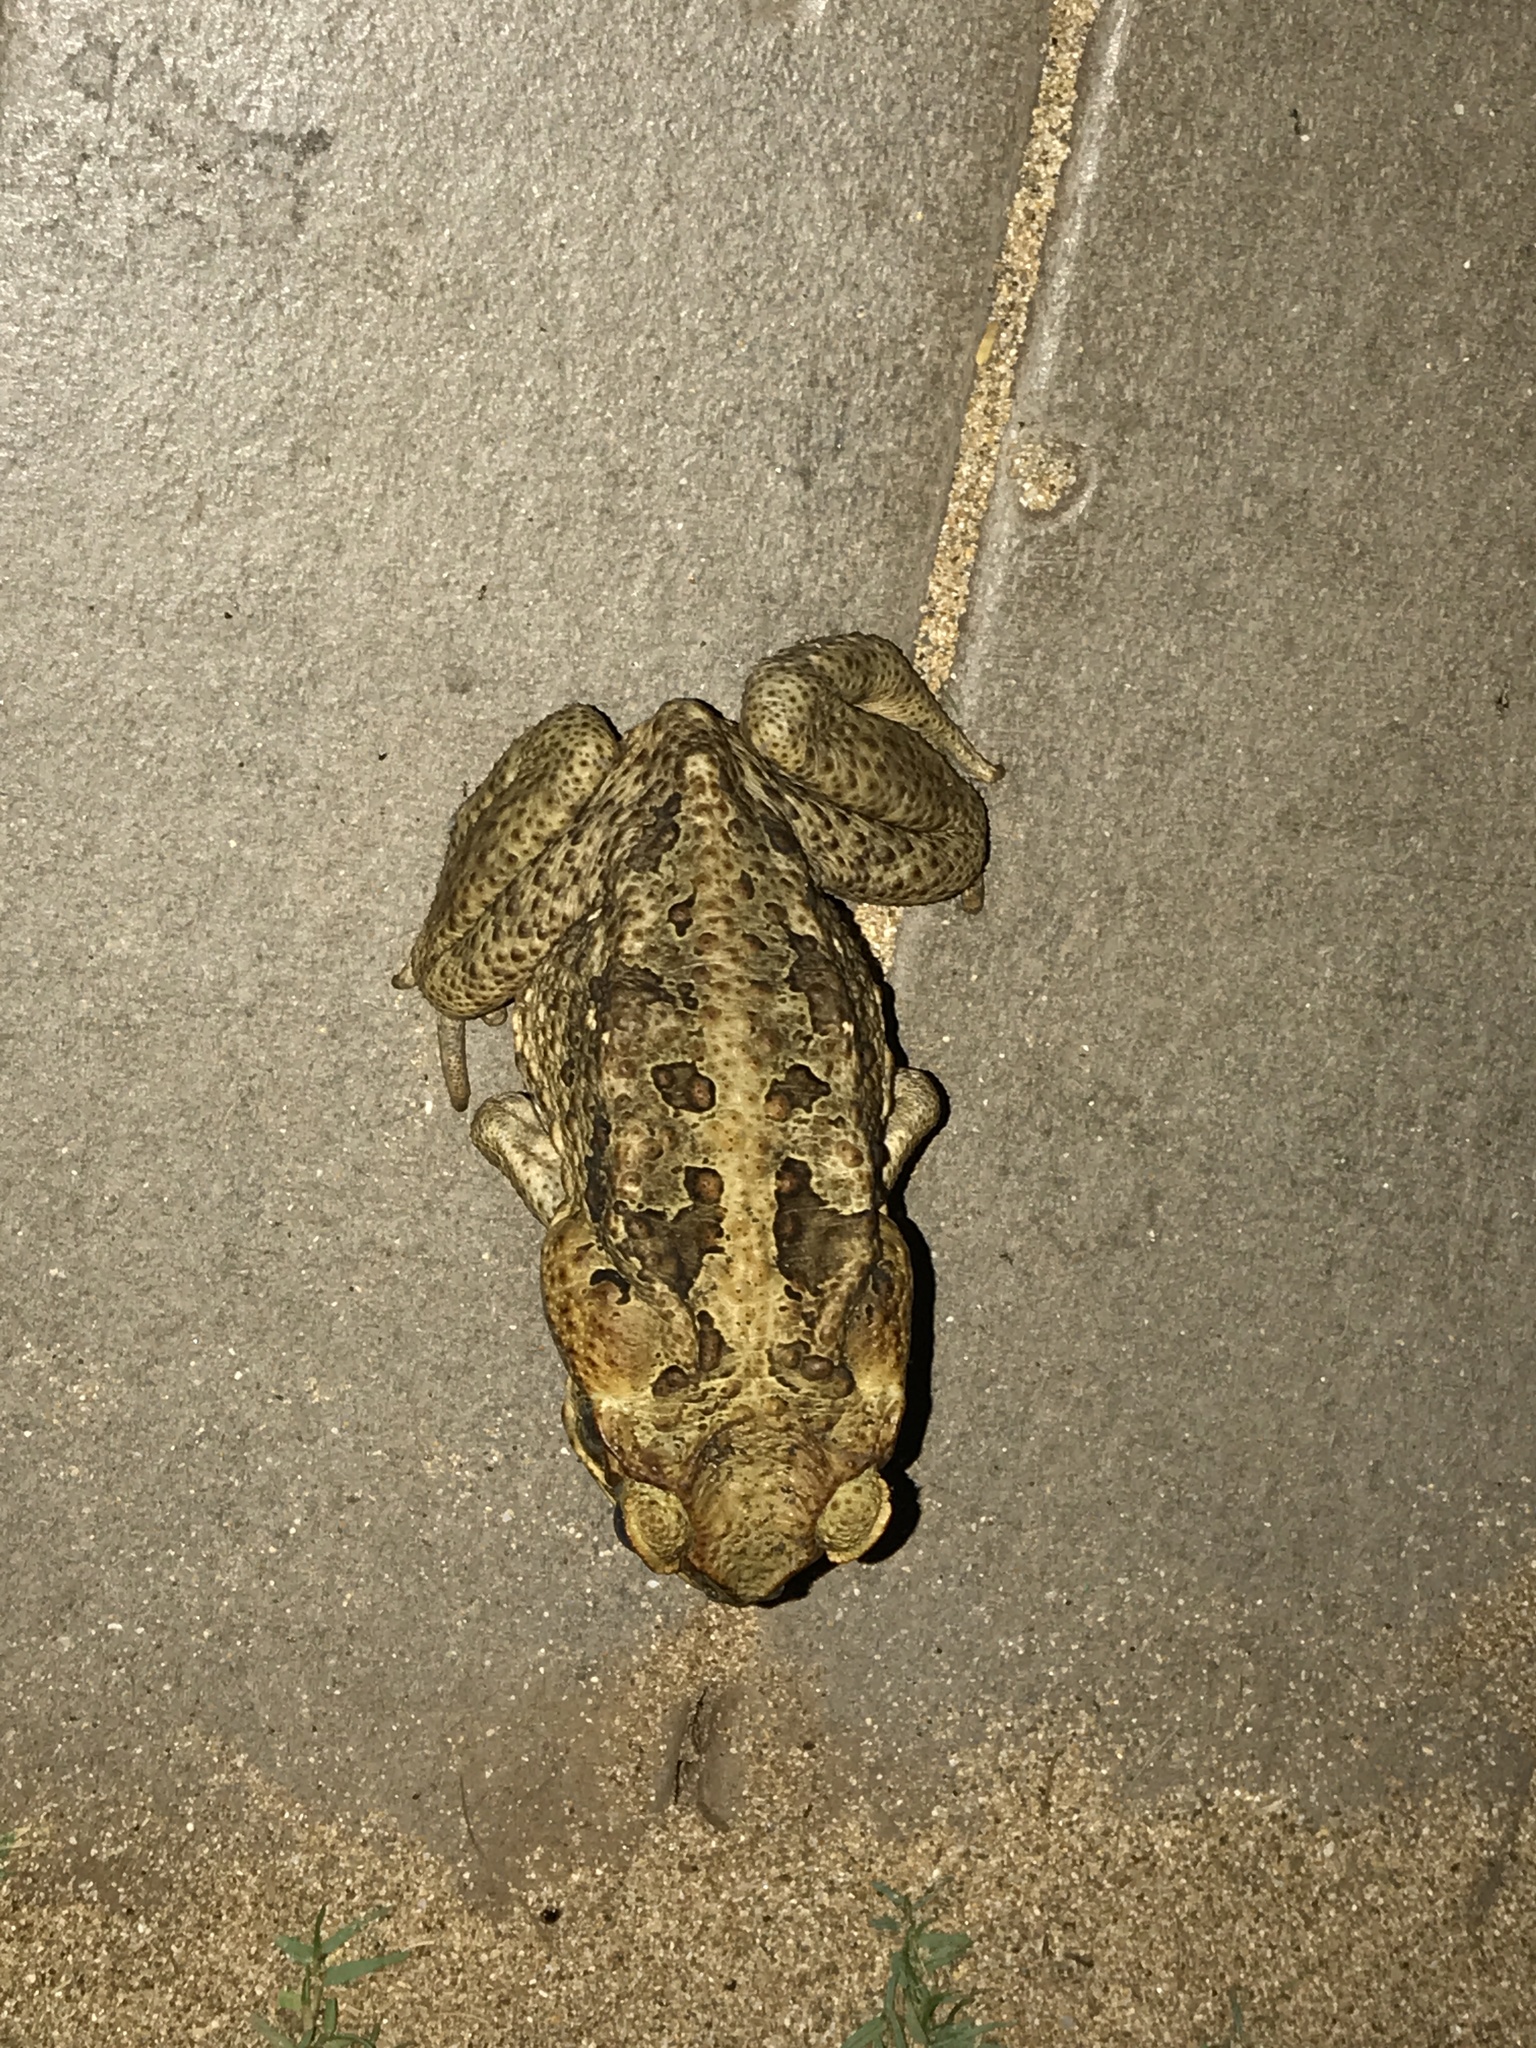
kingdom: Animalia
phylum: Chordata
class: Amphibia
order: Anura
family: Bufonidae
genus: Rhinella
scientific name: Rhinella marina
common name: Cane toad
